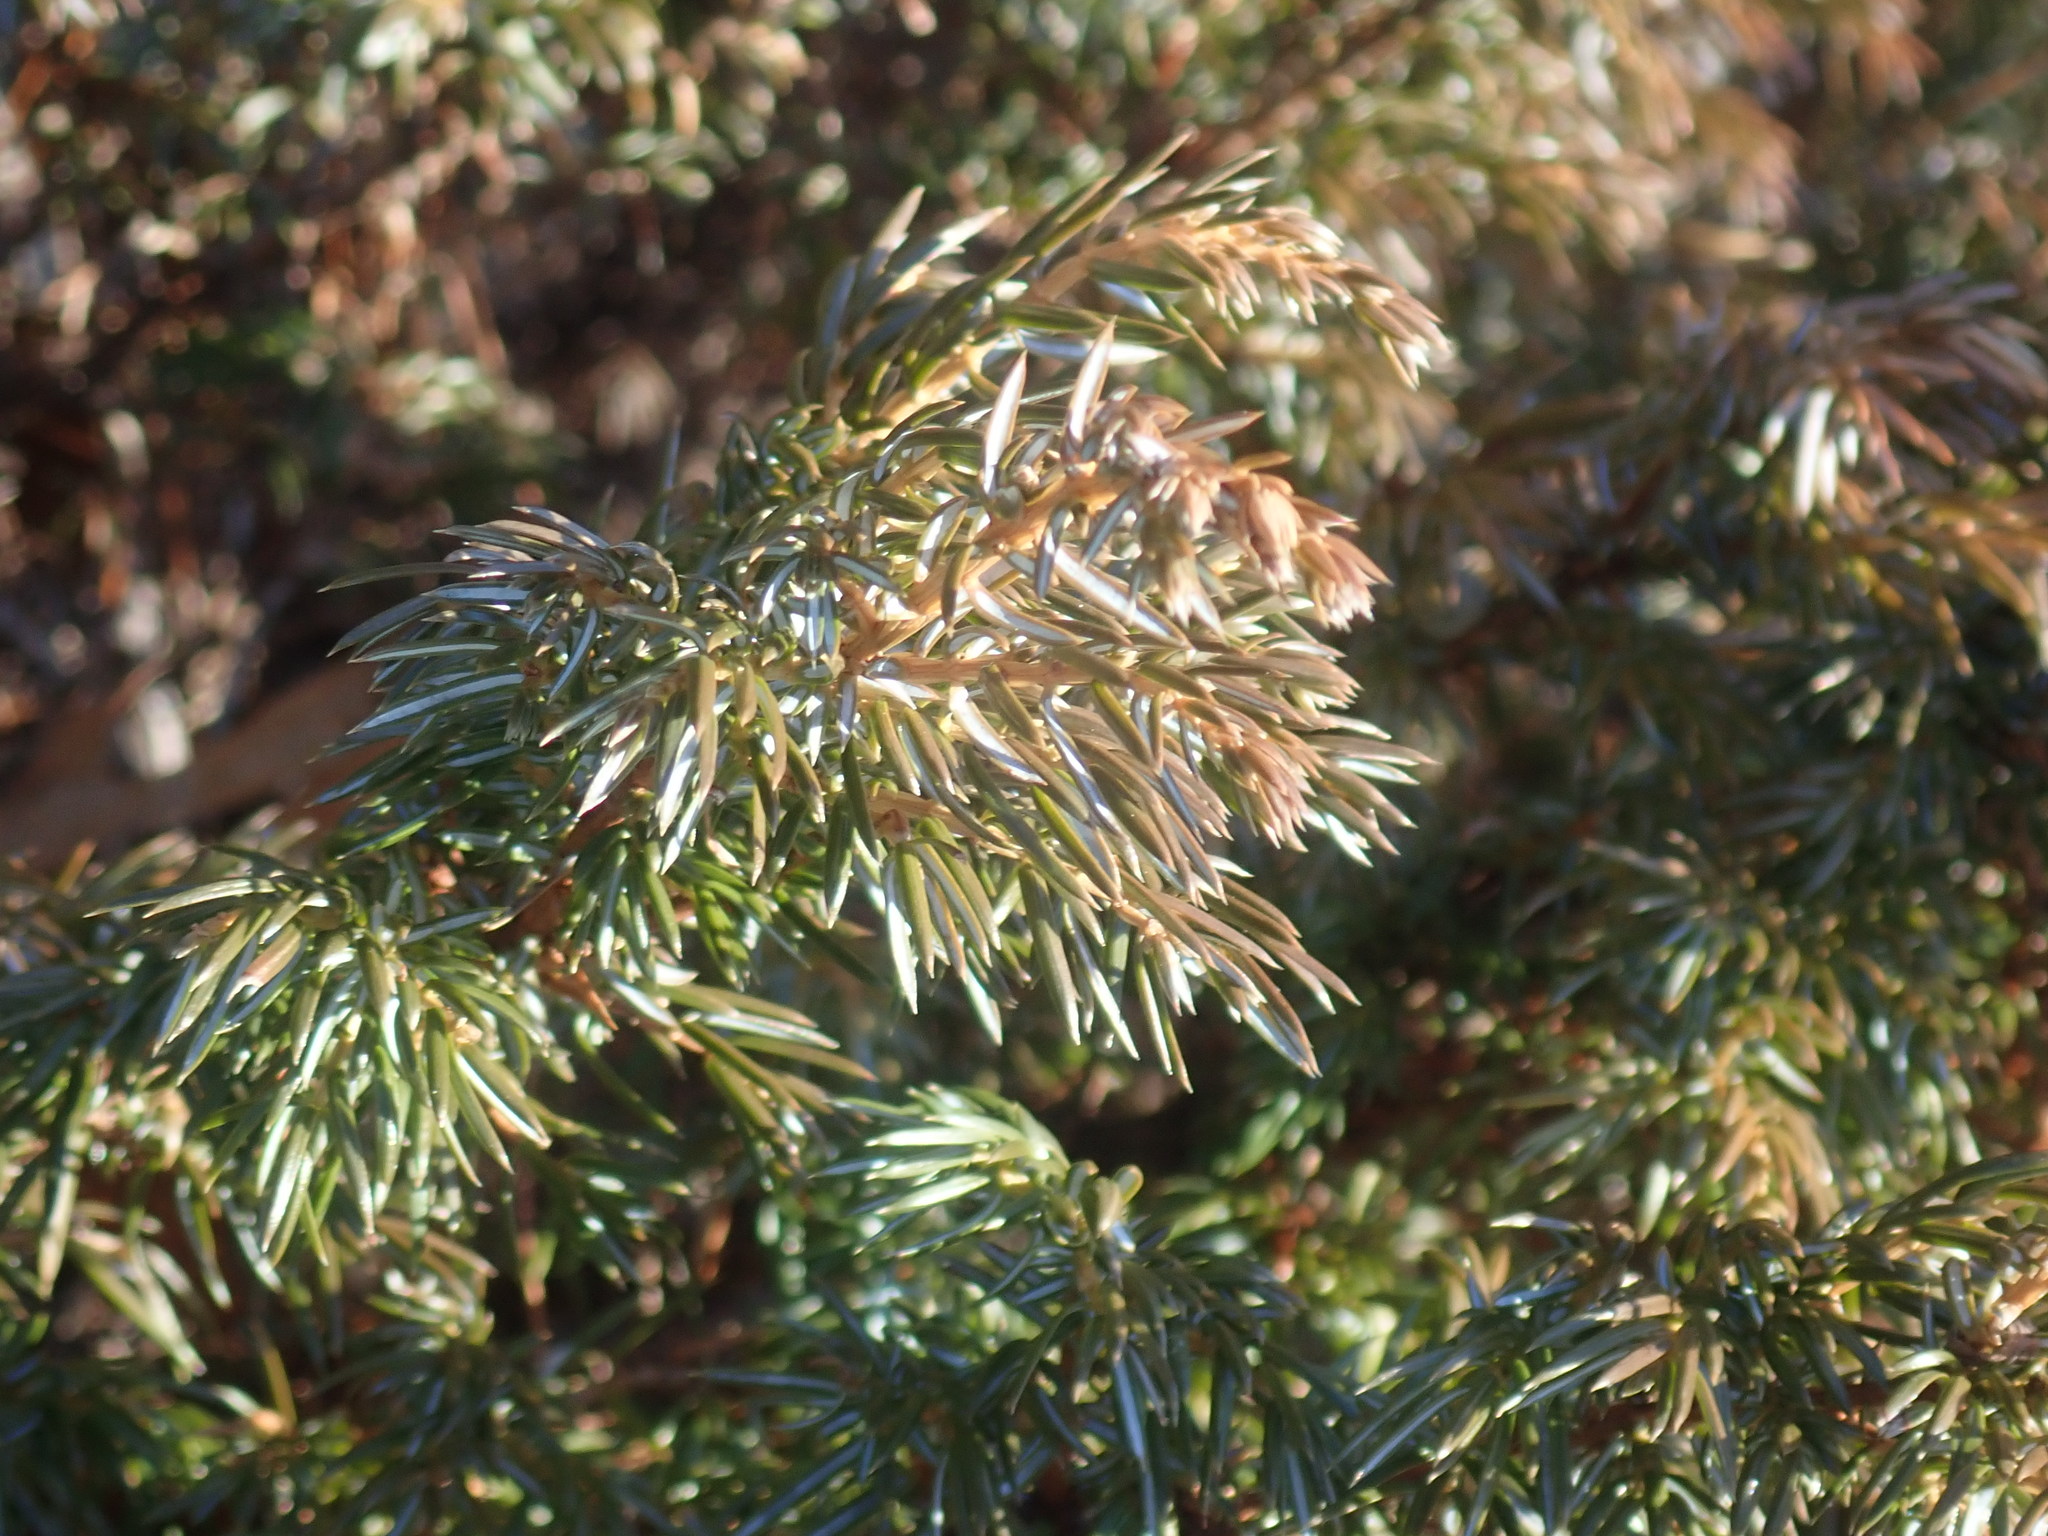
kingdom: Plantae
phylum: Tracheophyta
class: Pinopsida
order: Pinales
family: Cupressaceae
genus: Juniperus
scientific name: Juniperus communis
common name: Common juniper
